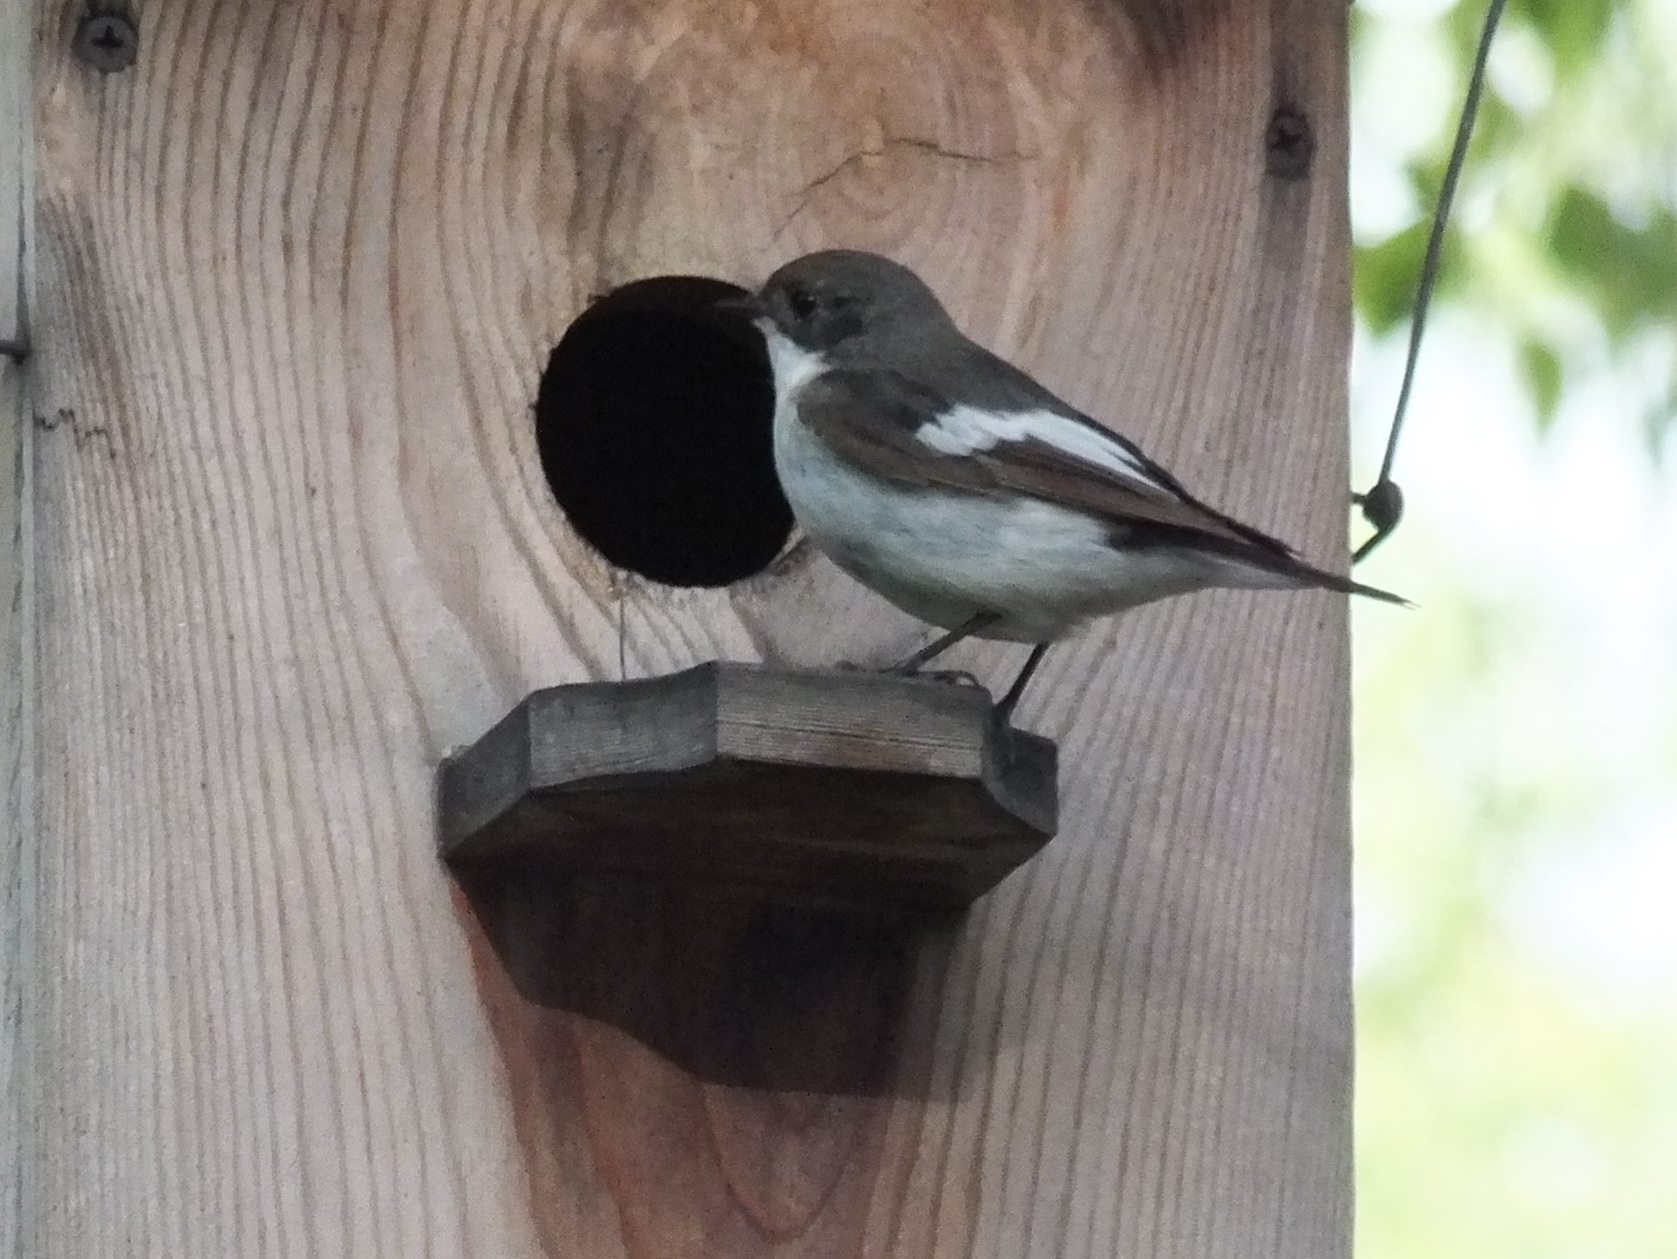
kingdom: Animalia
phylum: Chordata
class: Aves
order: Passeriformes
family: Muscicapidae
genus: Ficedula
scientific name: Ficedula hypoleuca
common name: European pied flycatcher
